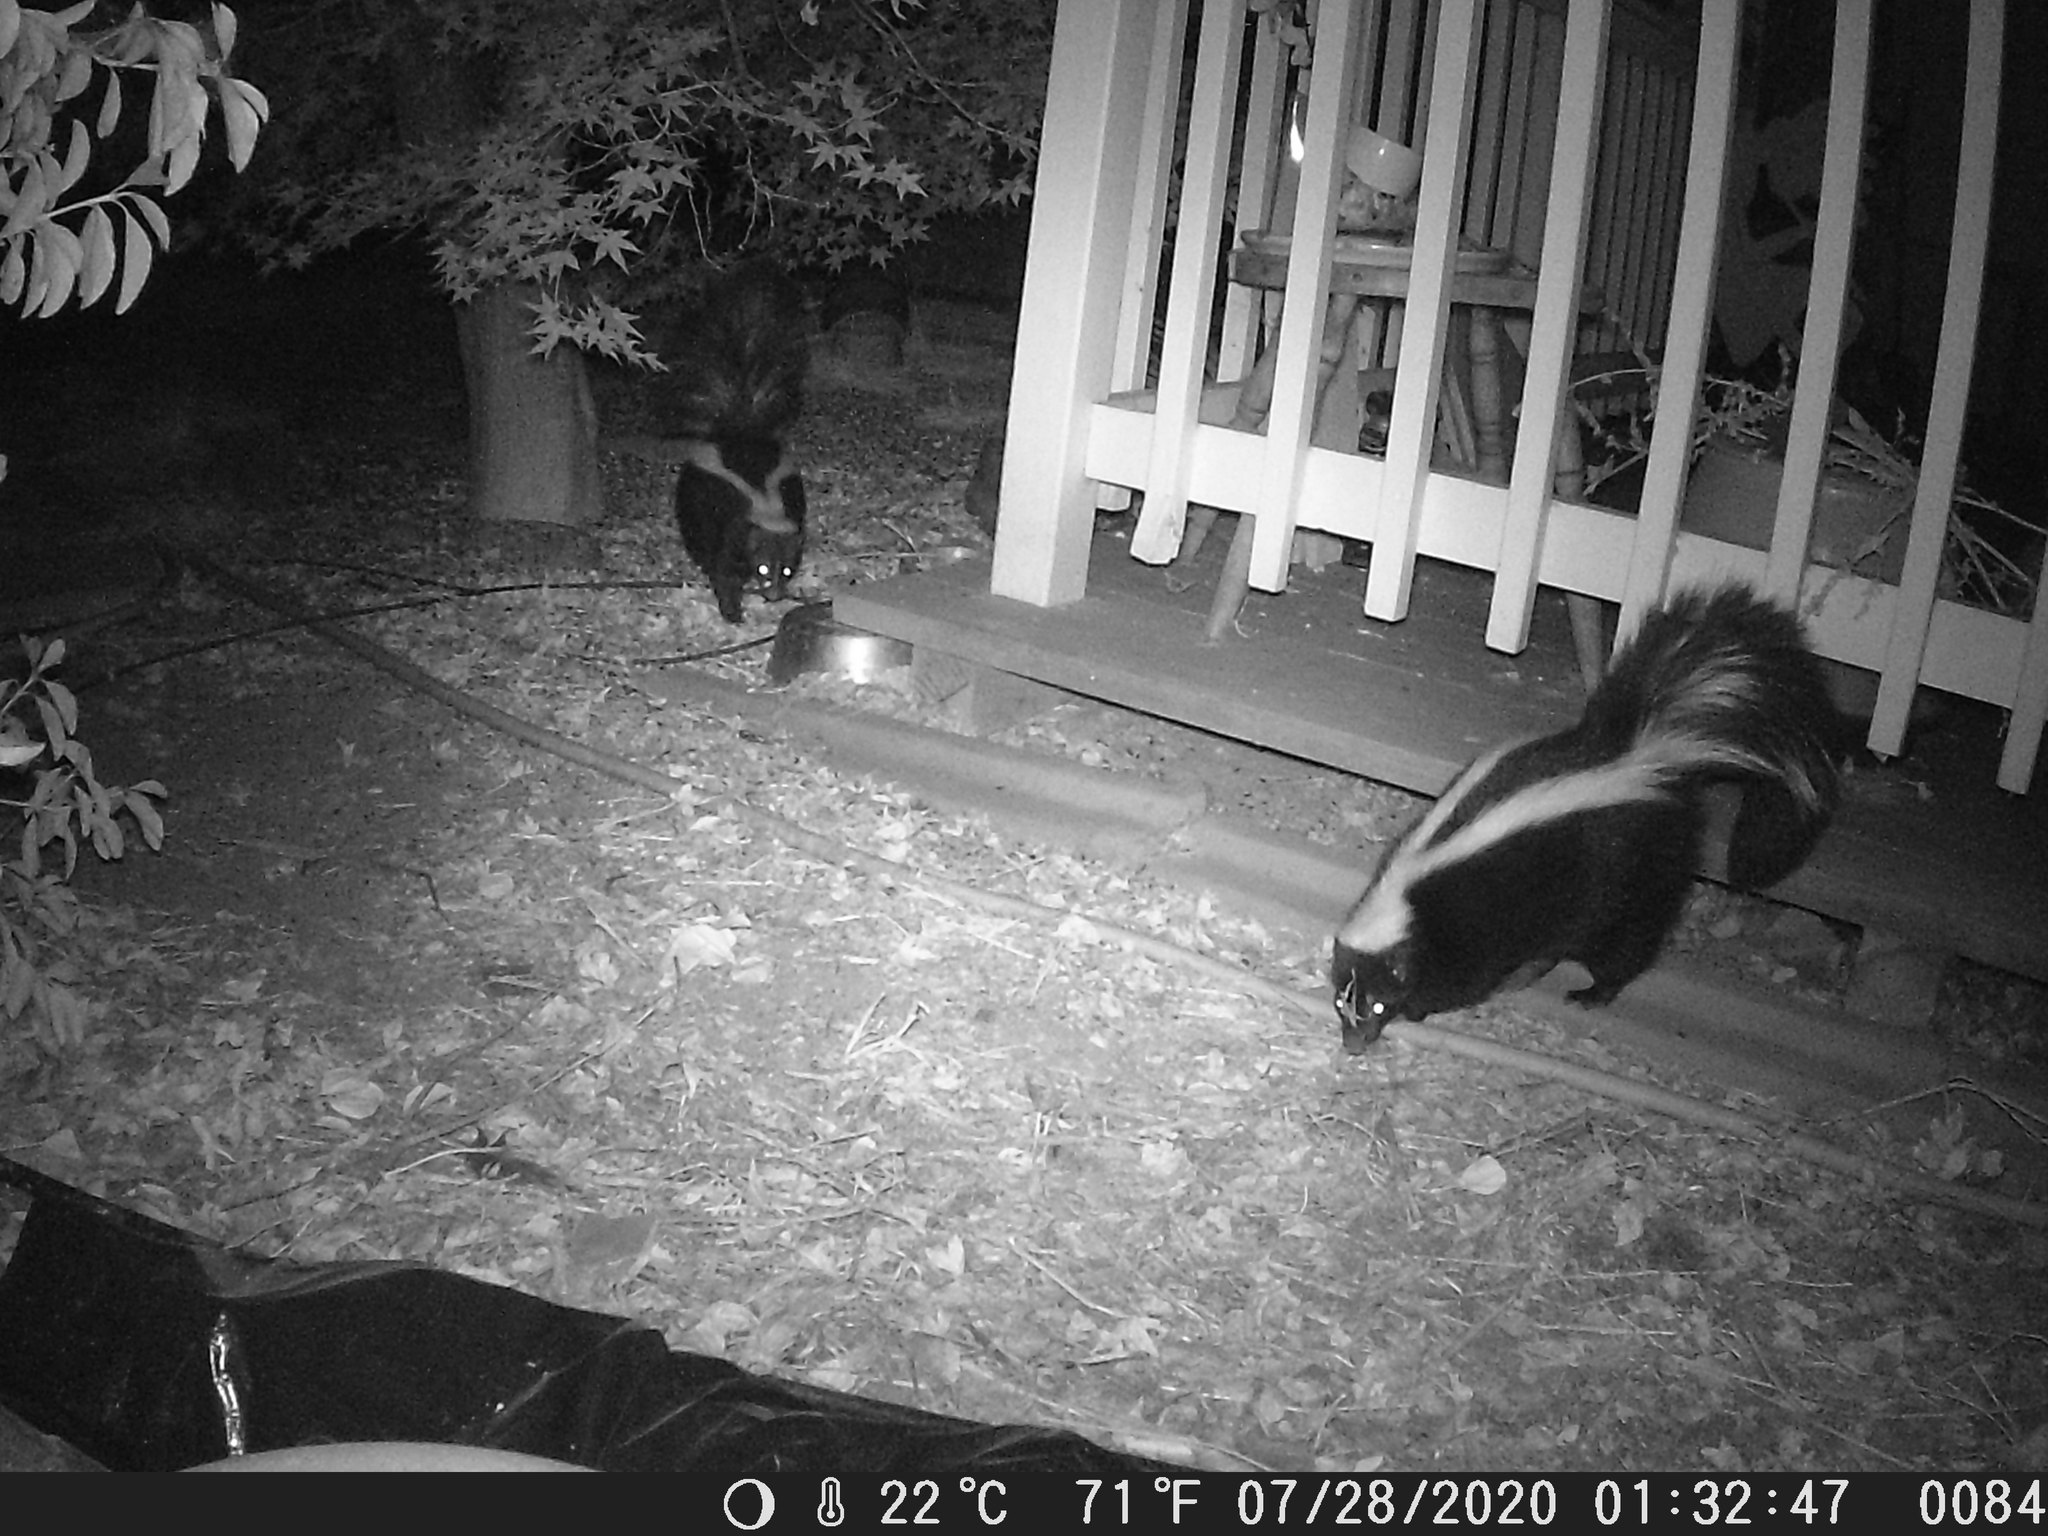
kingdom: Animalia
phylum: Chordata
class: Mammalia
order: Carnivora
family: Mephitidae
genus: Mephitis
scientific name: Mephitis mephitis
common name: Striped skunk
